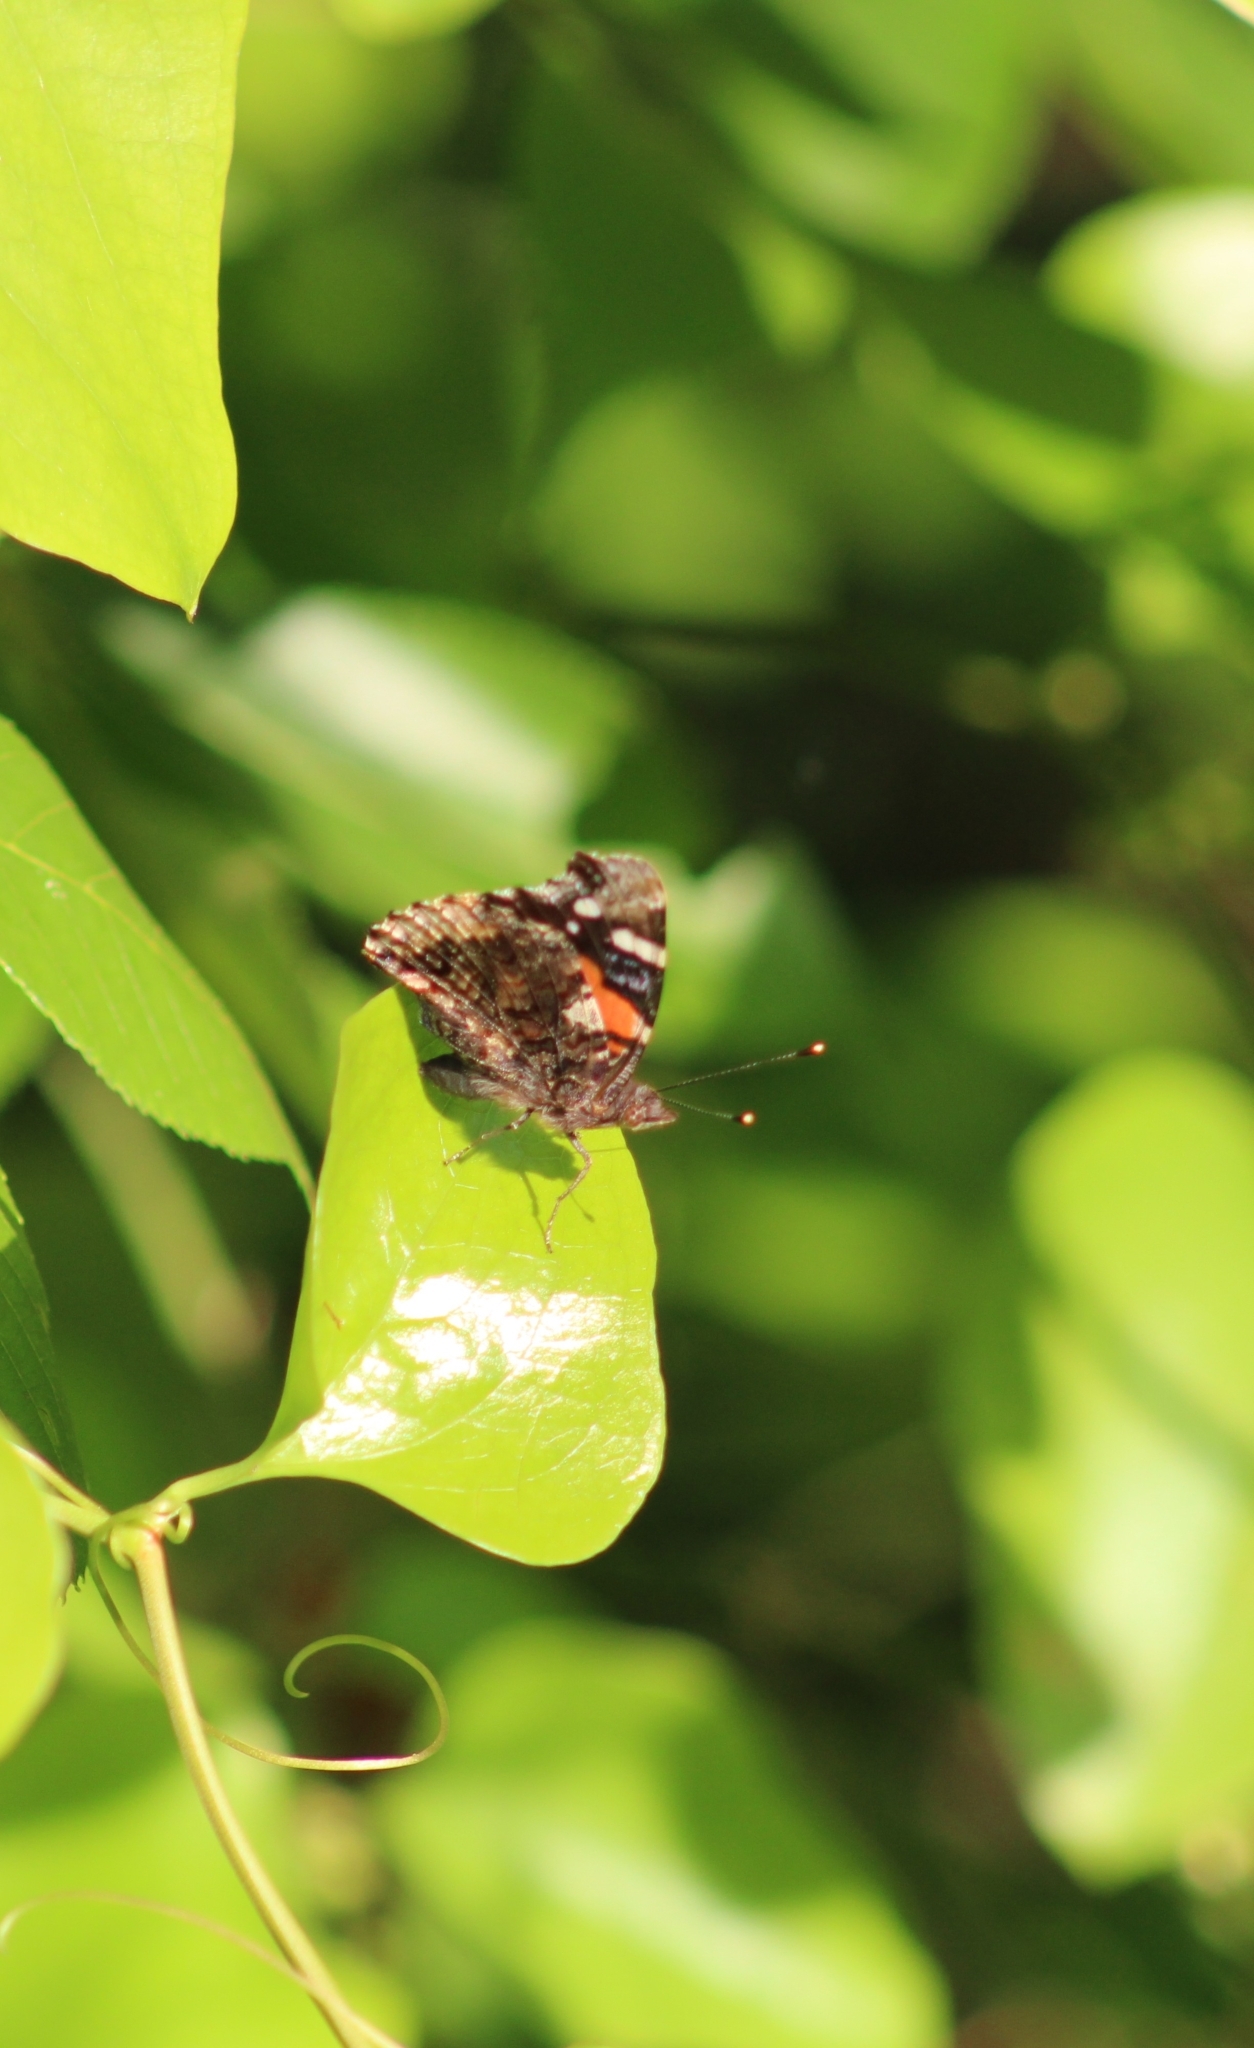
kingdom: Animalia
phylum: Arthropoda
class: Insecta
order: Lepidoptera
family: Nymphalidae
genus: Vanessa
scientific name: Vanessa atalanta
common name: Red admiral
